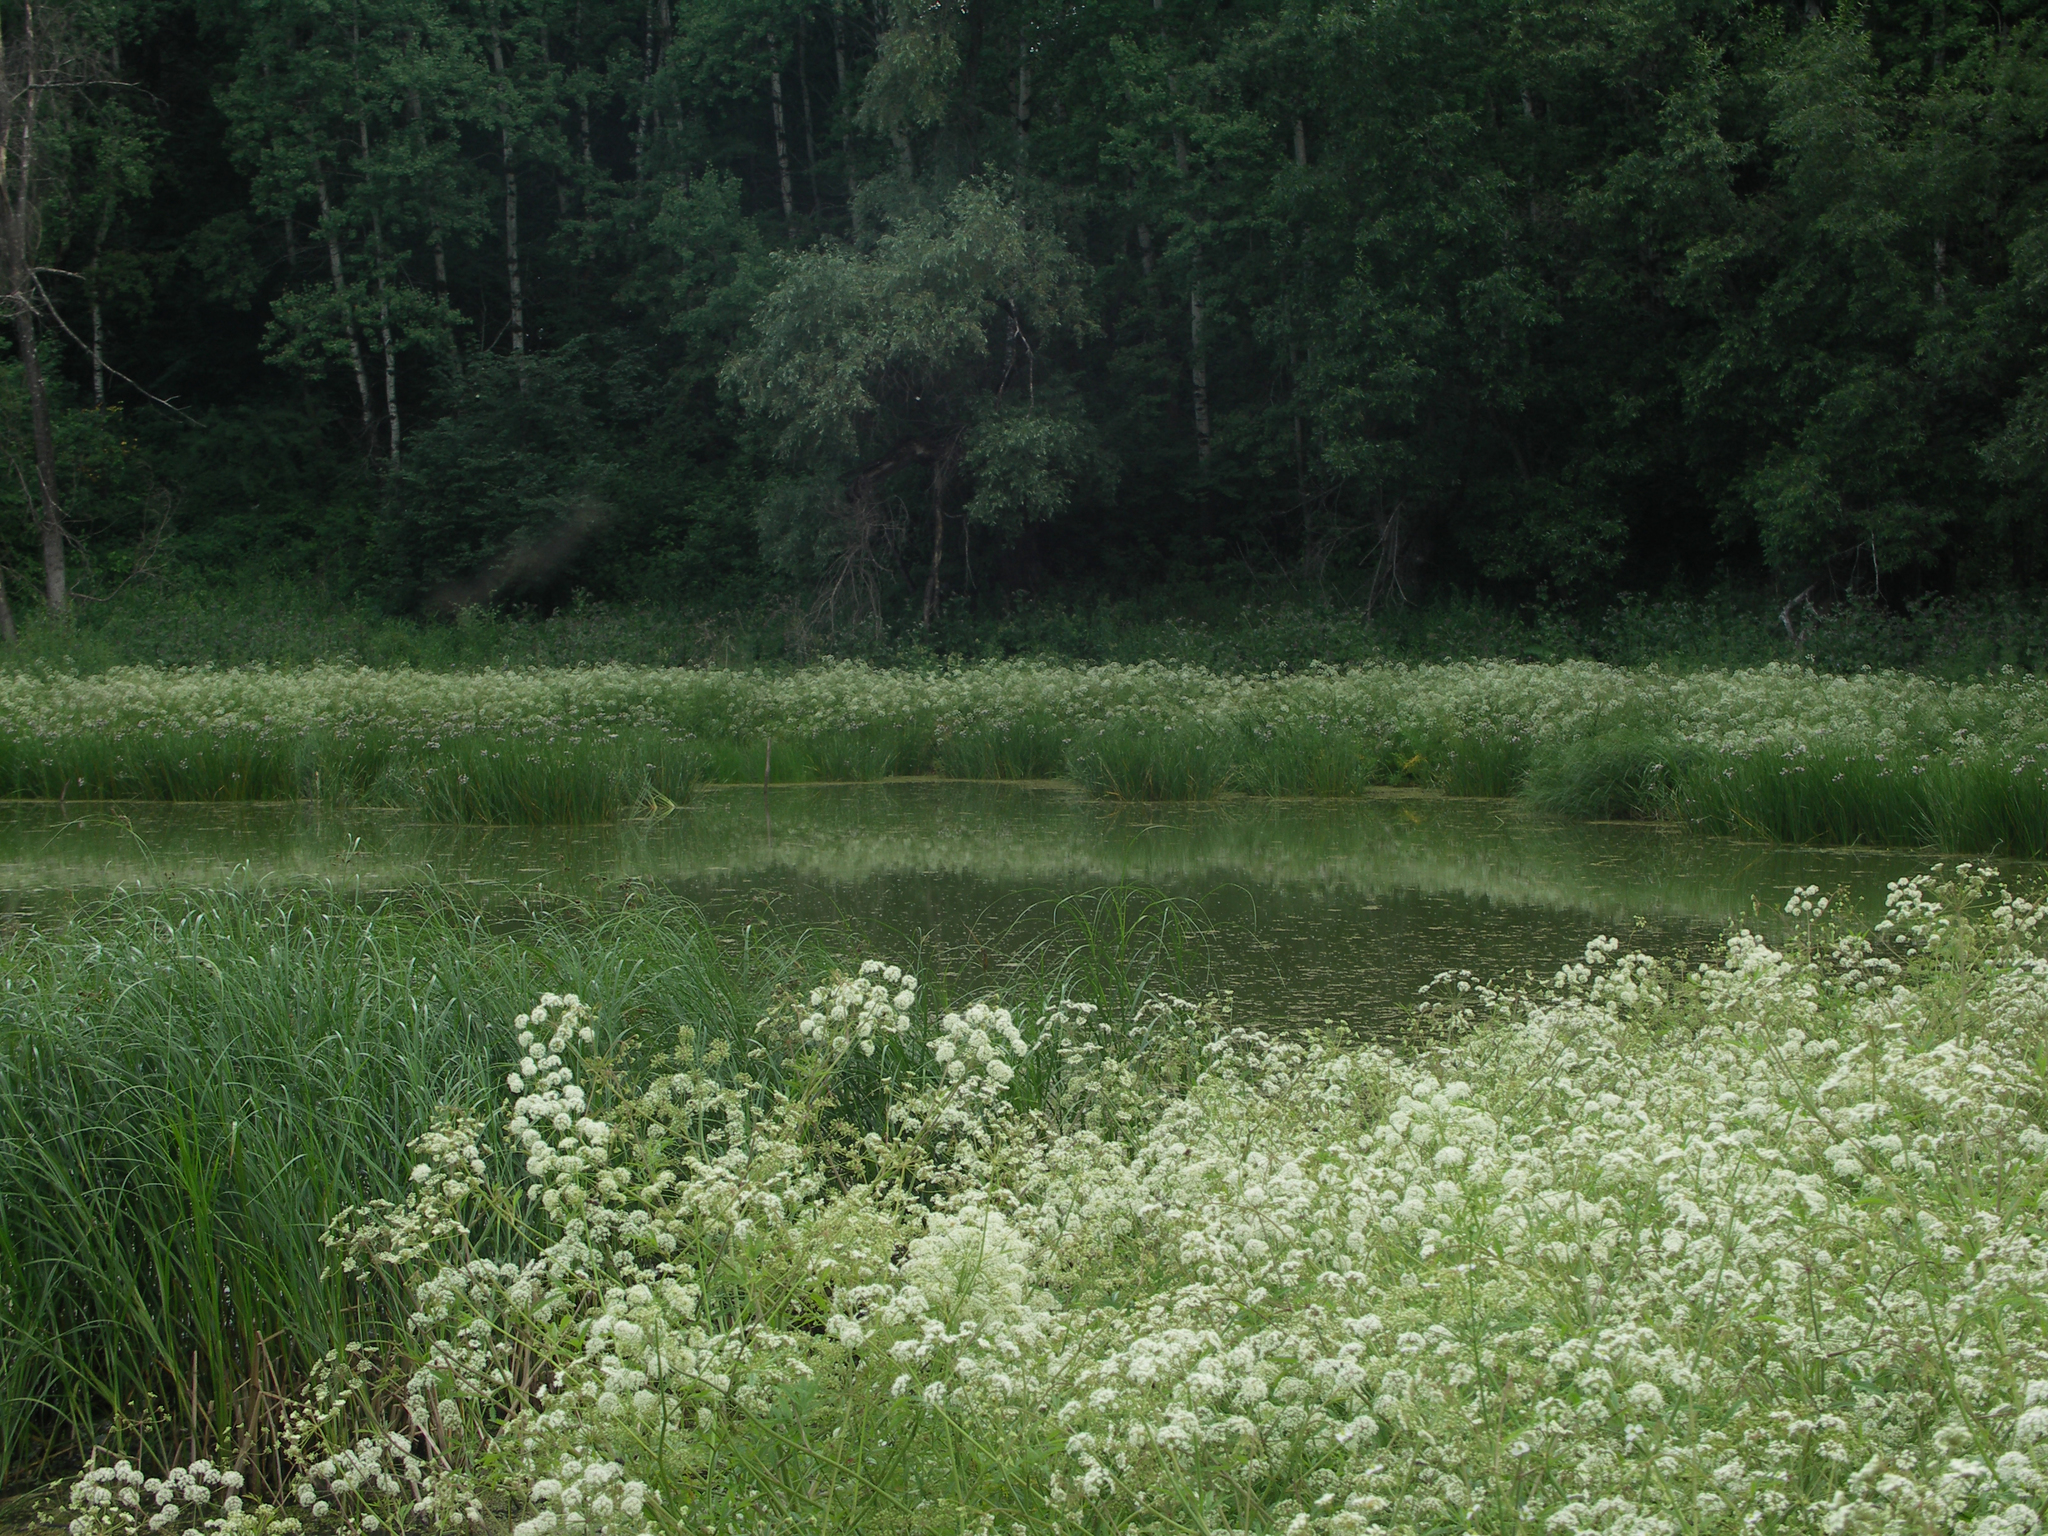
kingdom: Plantae
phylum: Tracheophyta
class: Magnoliopsida
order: Apiales
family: Apiaceae
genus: Cicuta
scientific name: Cicuta virosa
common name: Cowbane
